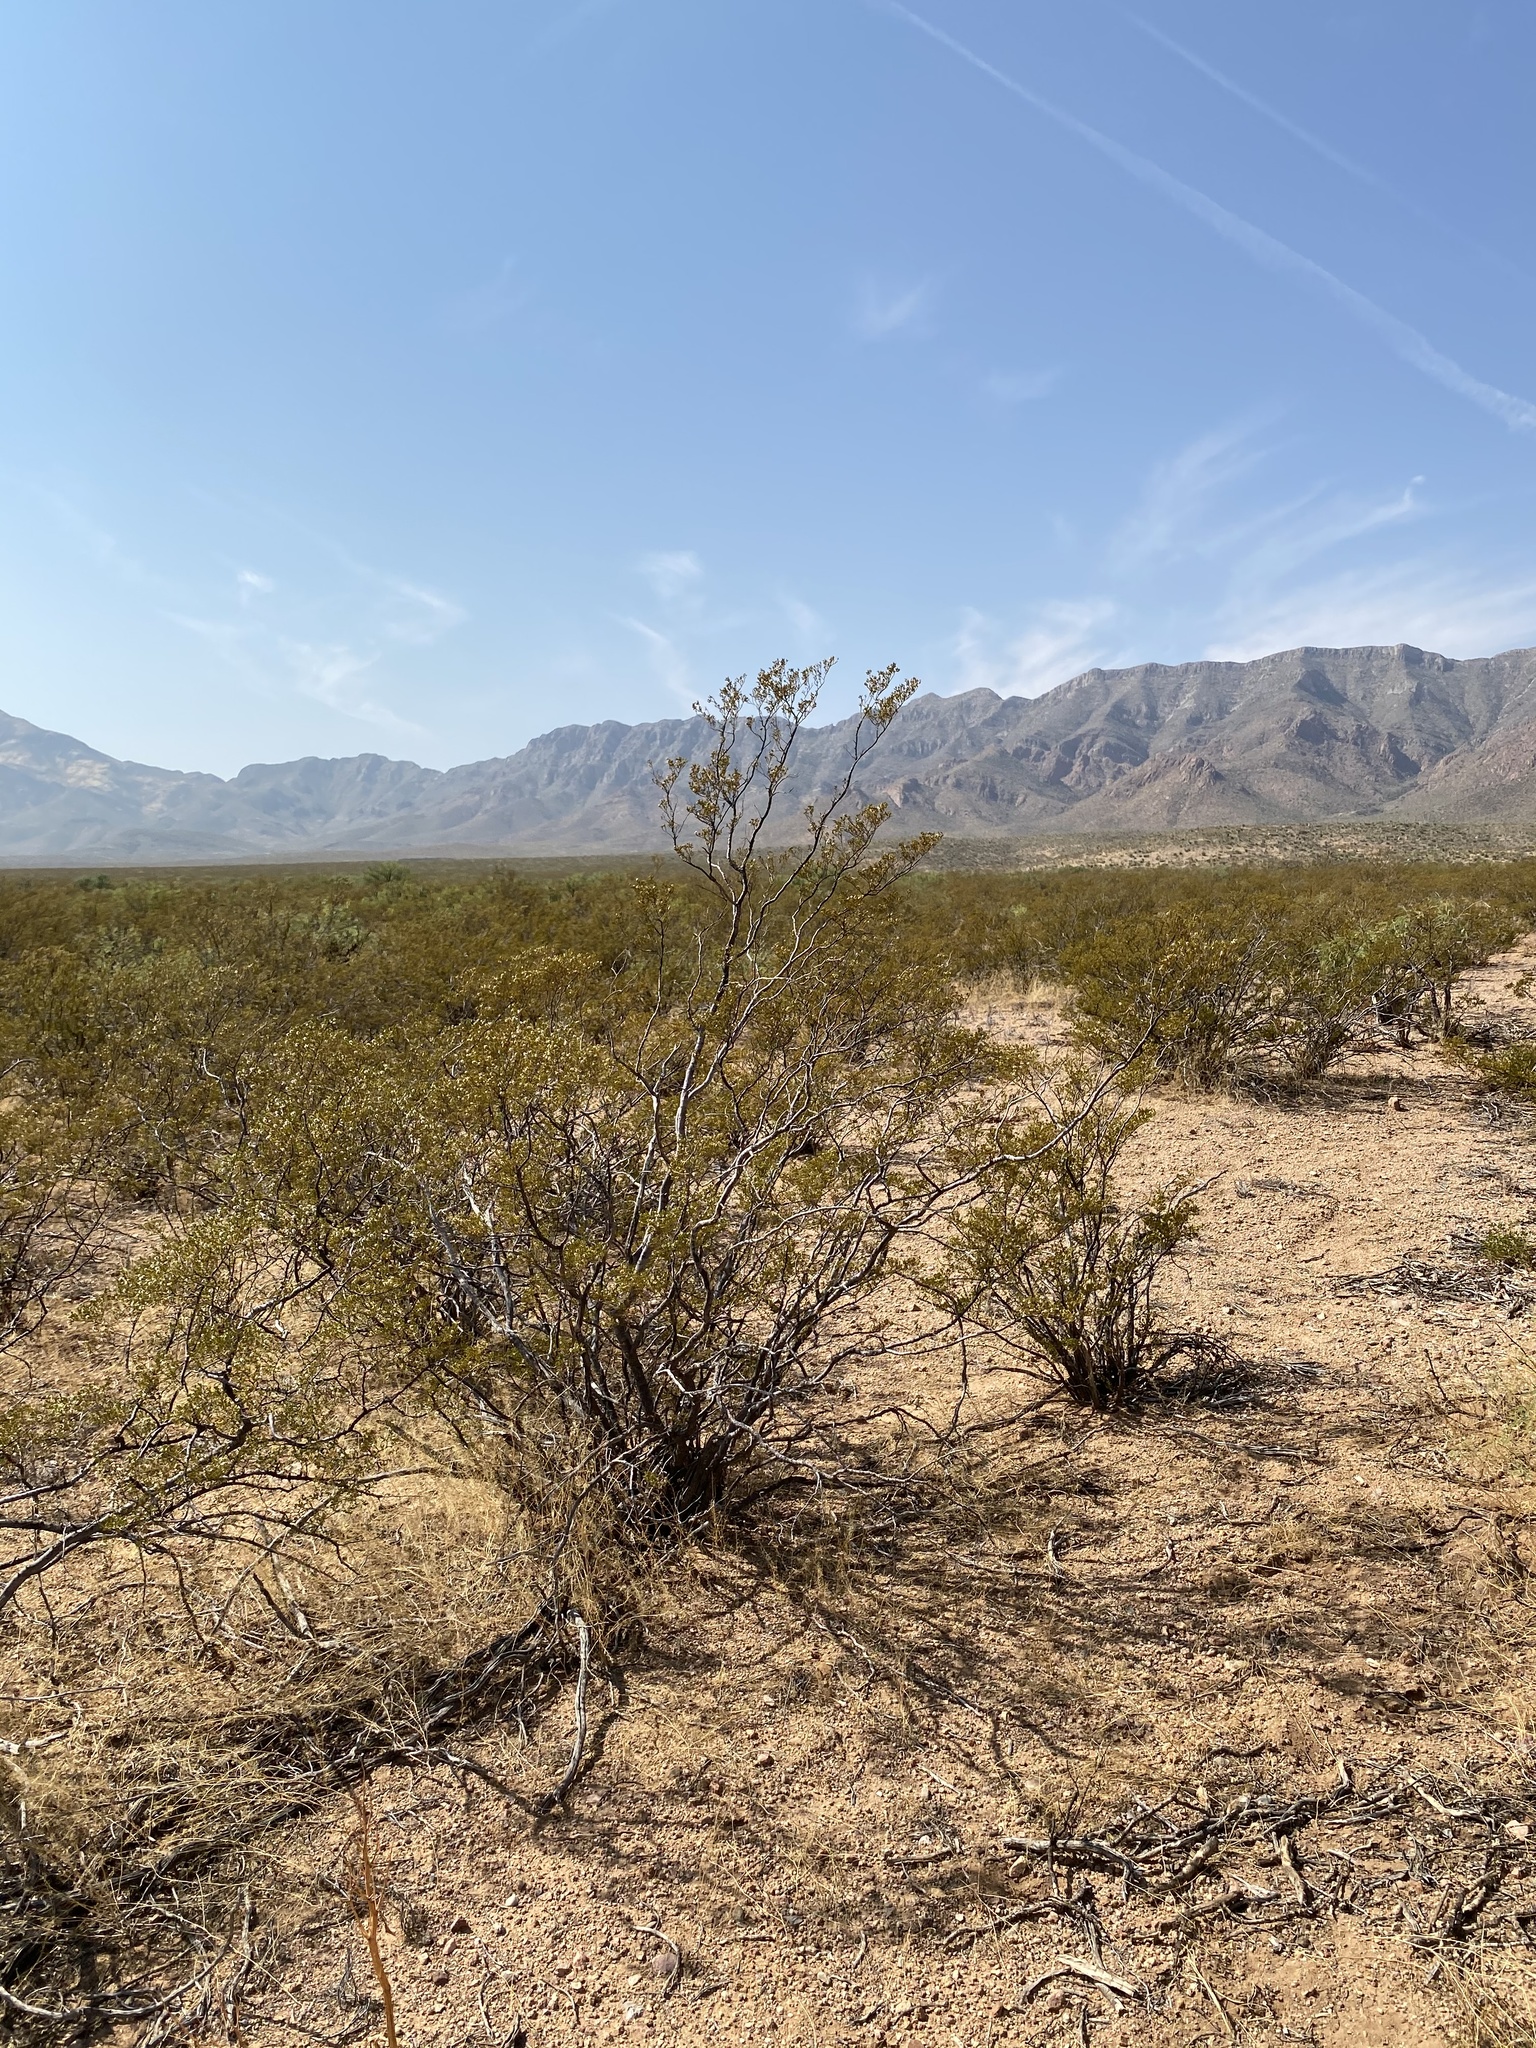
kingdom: Plantae
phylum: Tracheophyta
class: Magnoliopsida
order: Zygophyllales
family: Zygophyllaceae
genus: Larrea
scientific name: Larrea tridentata
